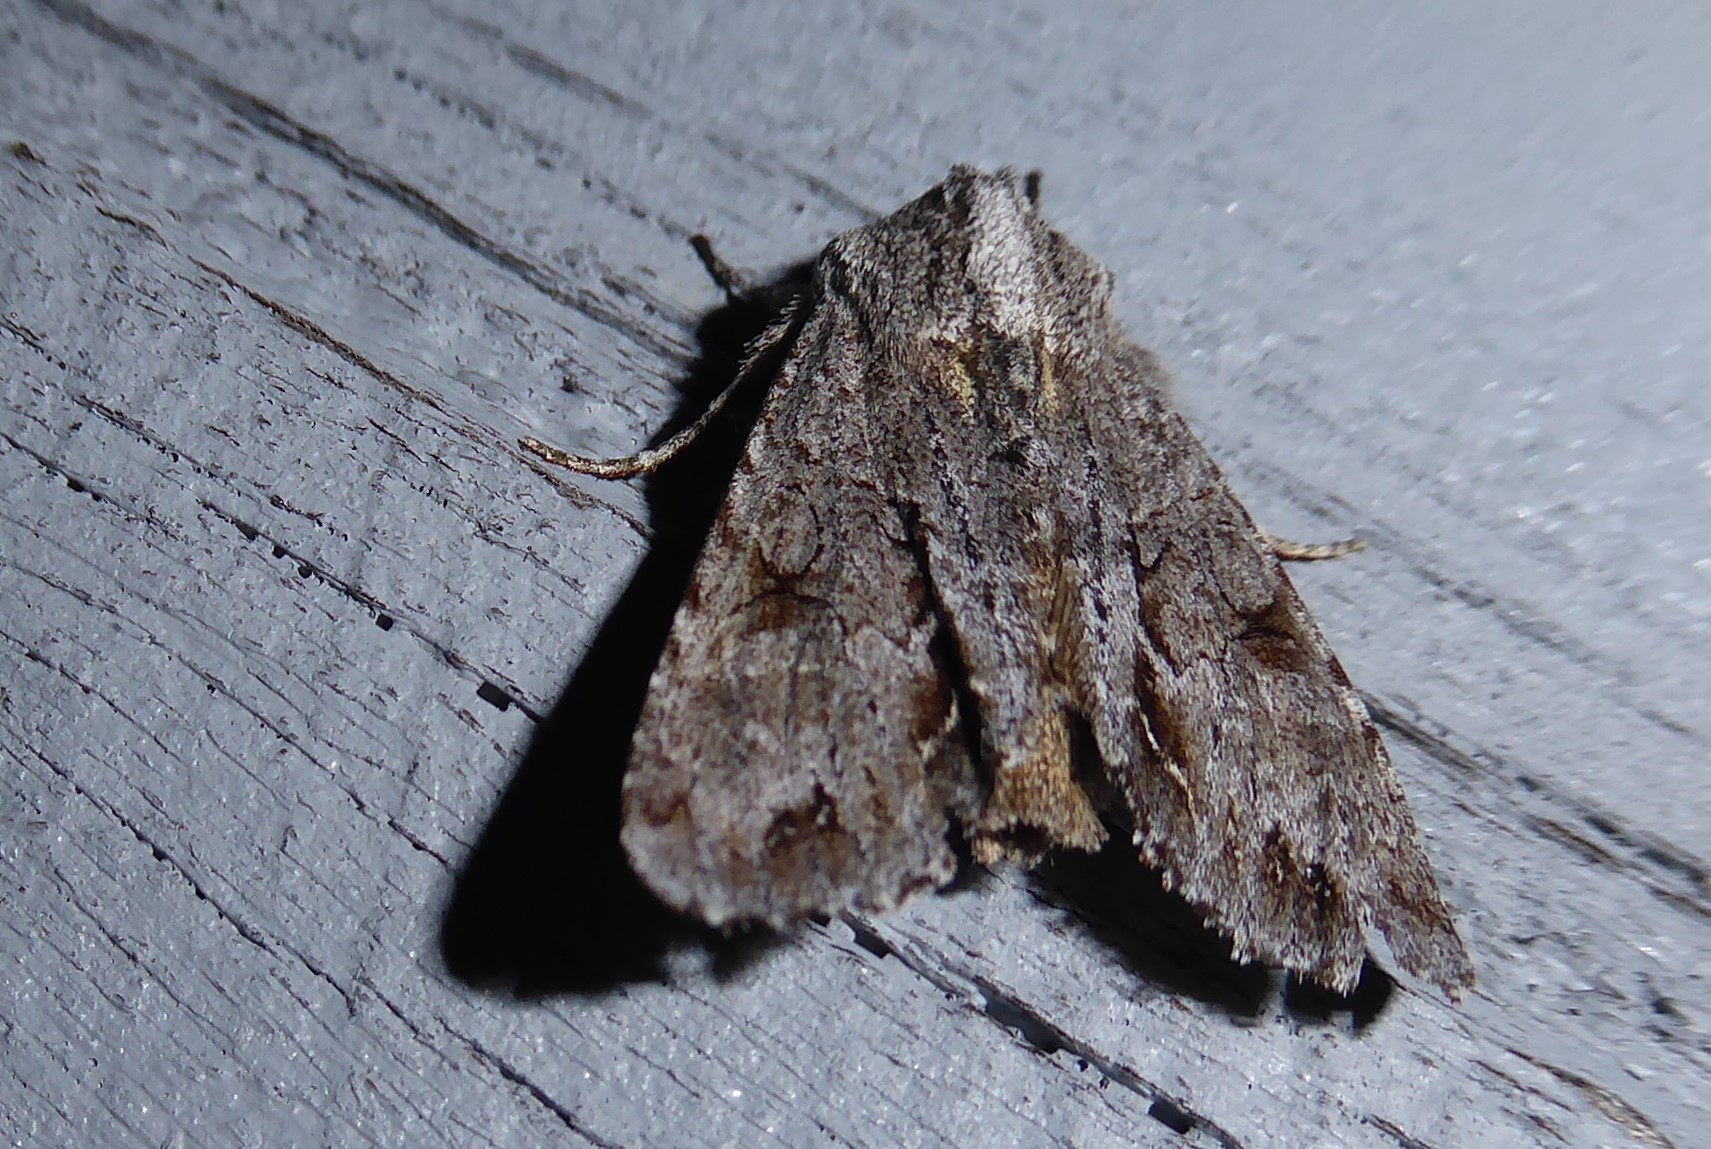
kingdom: Animalia
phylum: Arthropoda
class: Insecta
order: Lepidoptera
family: Noctuidae
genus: Ichneutica
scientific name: Ichneutica
